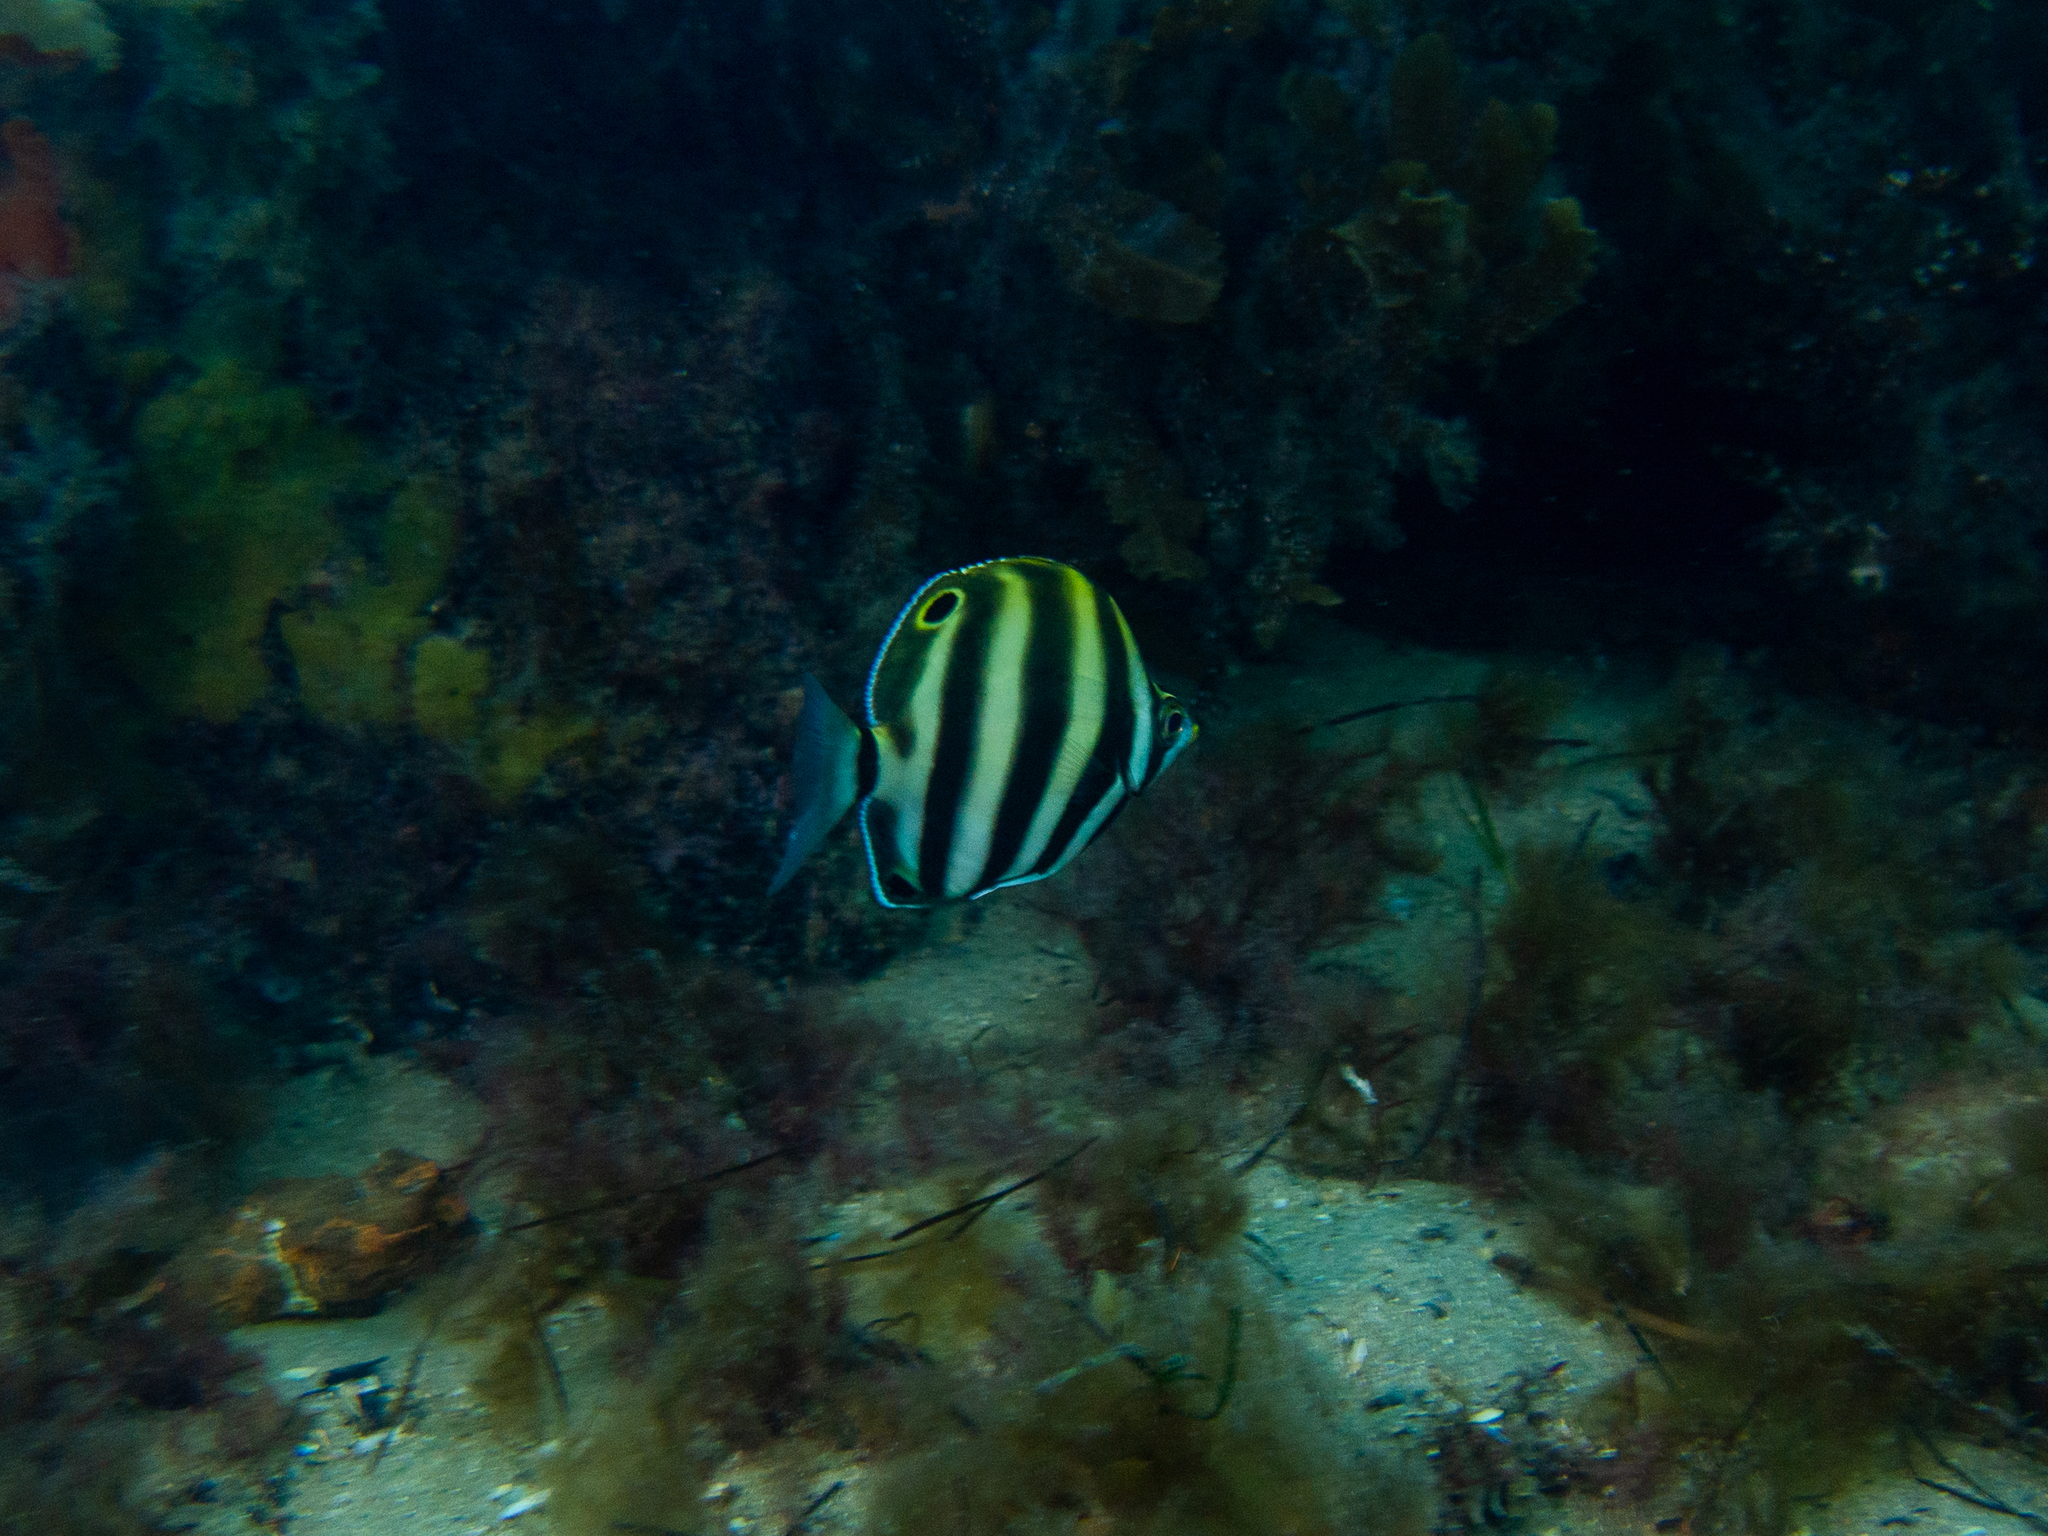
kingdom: Animalia
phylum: Chordata
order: Perciformes
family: Kyphosidae
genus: Tilodon
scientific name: Tilodon sexfasciatus
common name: Moonlighter
